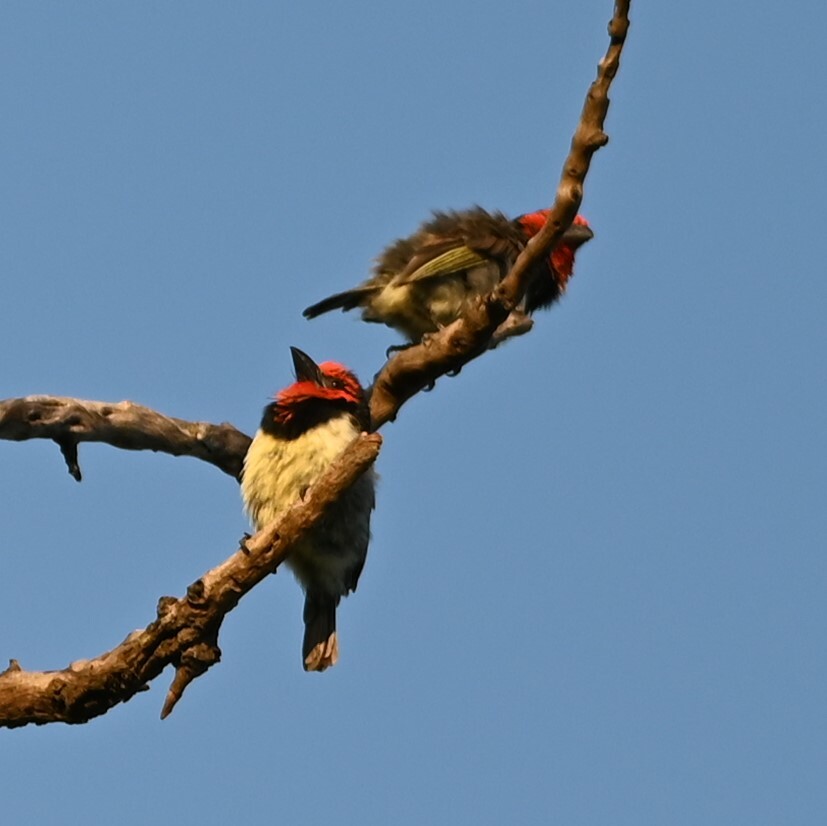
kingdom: Animalia
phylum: Chordata
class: Aves
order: Piciformes
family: Lybiidae
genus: Lybius
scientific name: Lybius torquatus
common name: Black-collared barbet
